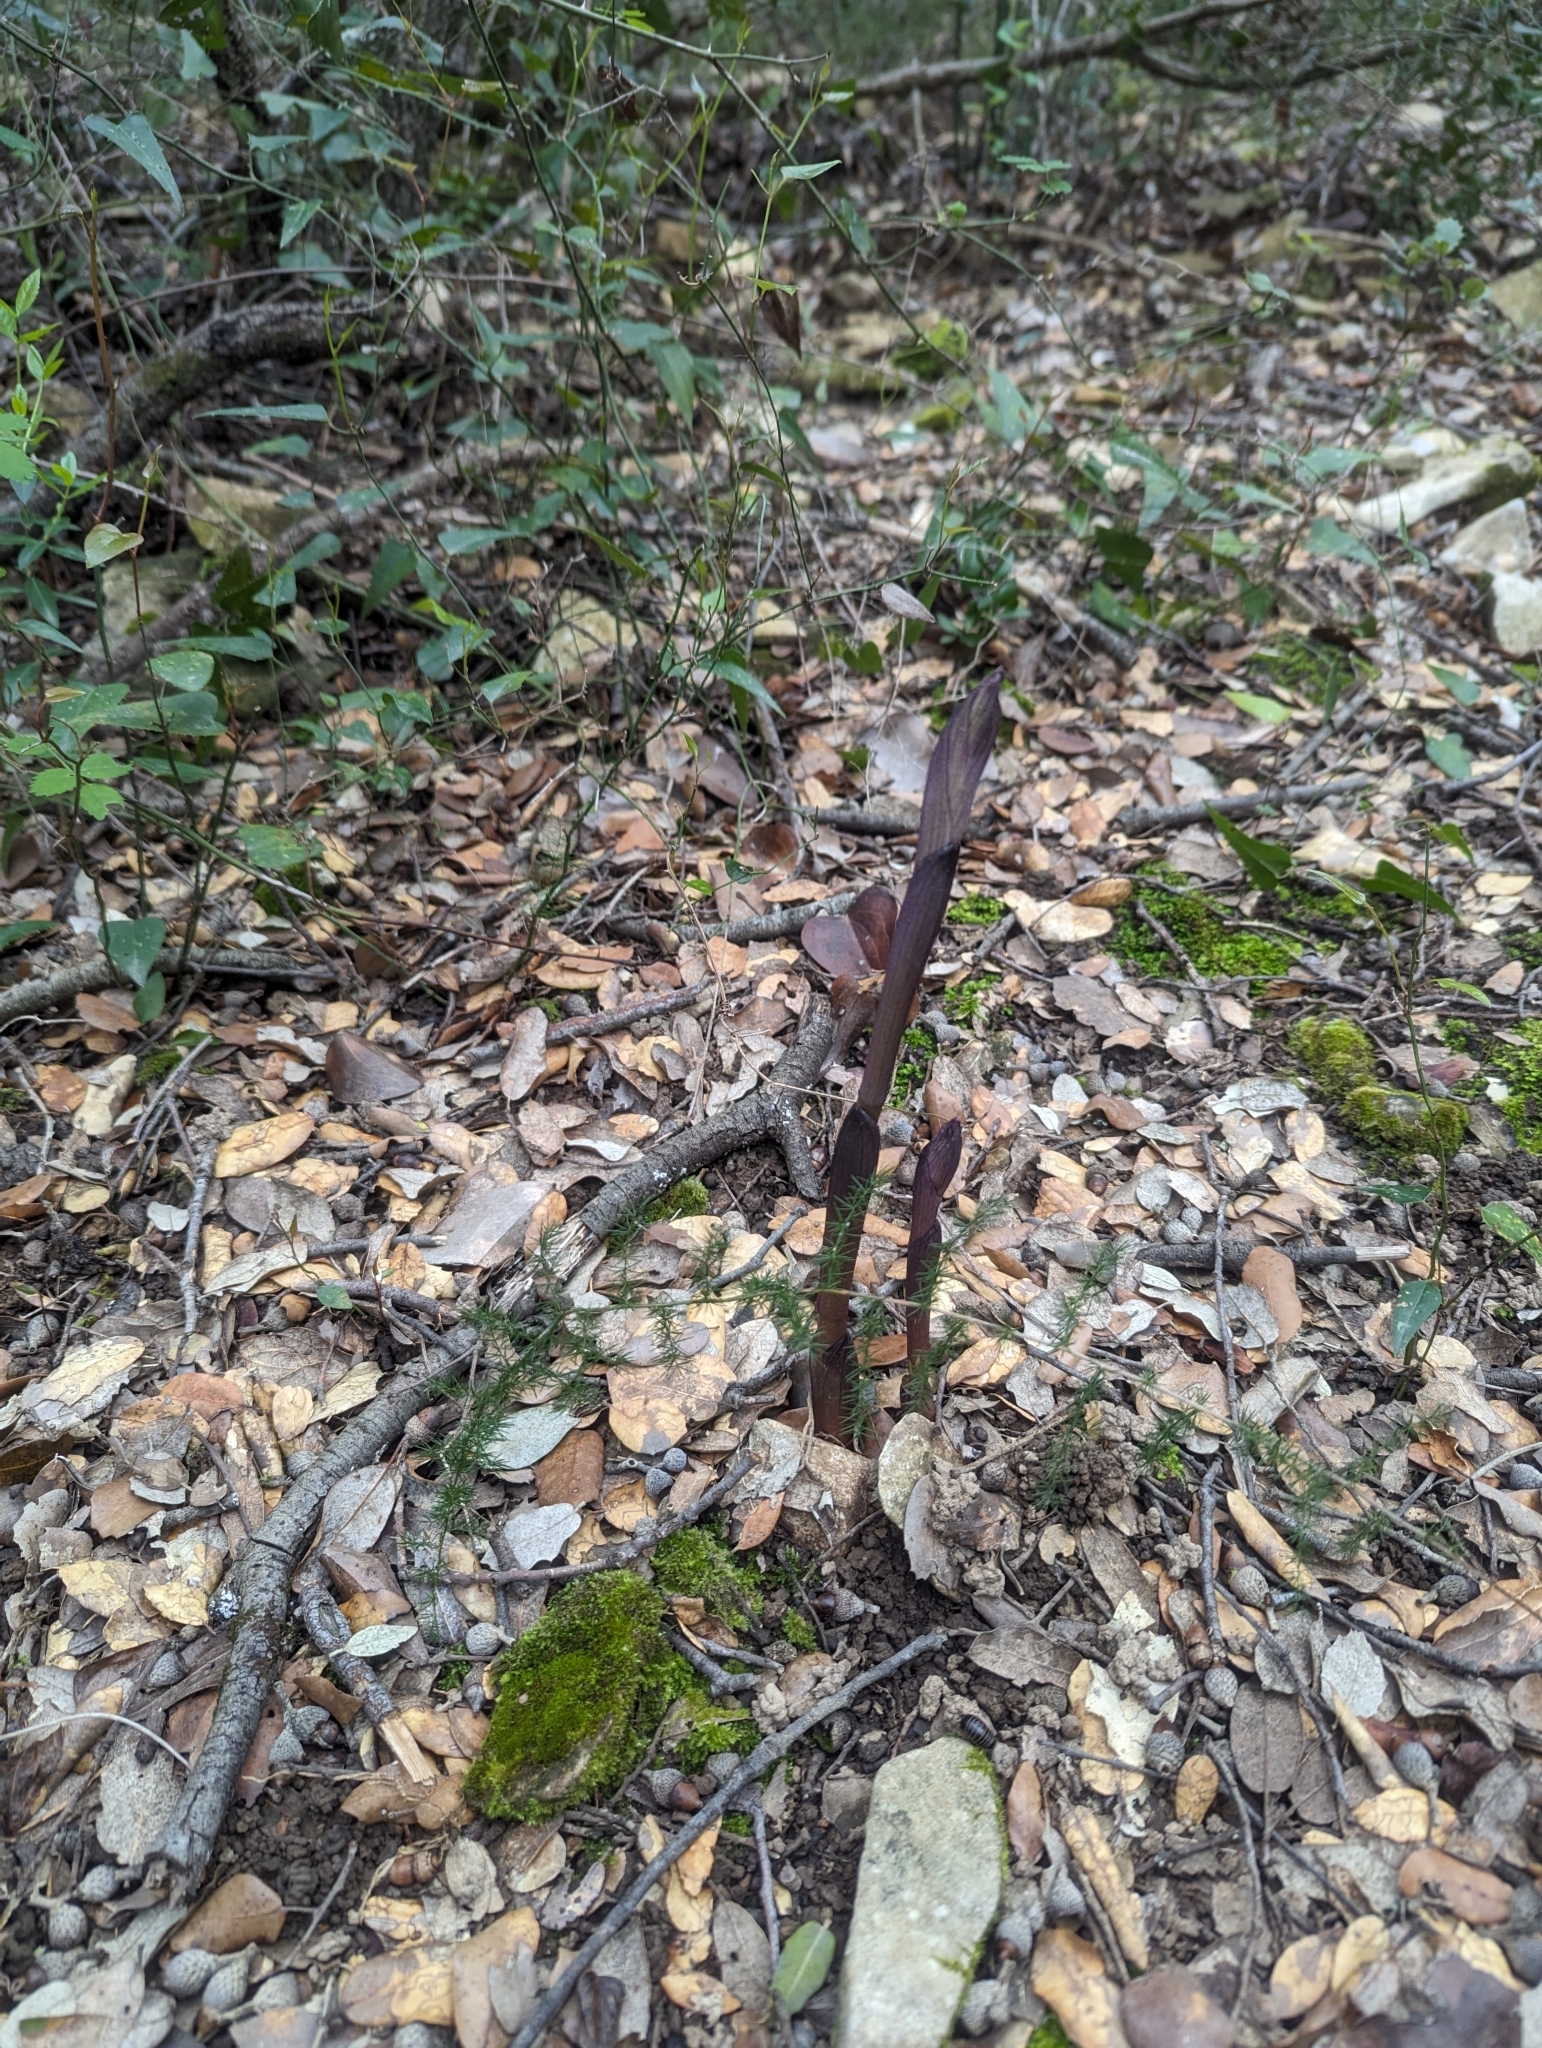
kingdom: Plantae
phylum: Tracheophyta
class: Liliopsida
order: Asparagales
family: Orchidaceae
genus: Limodorum
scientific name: Limodorum abortivum
